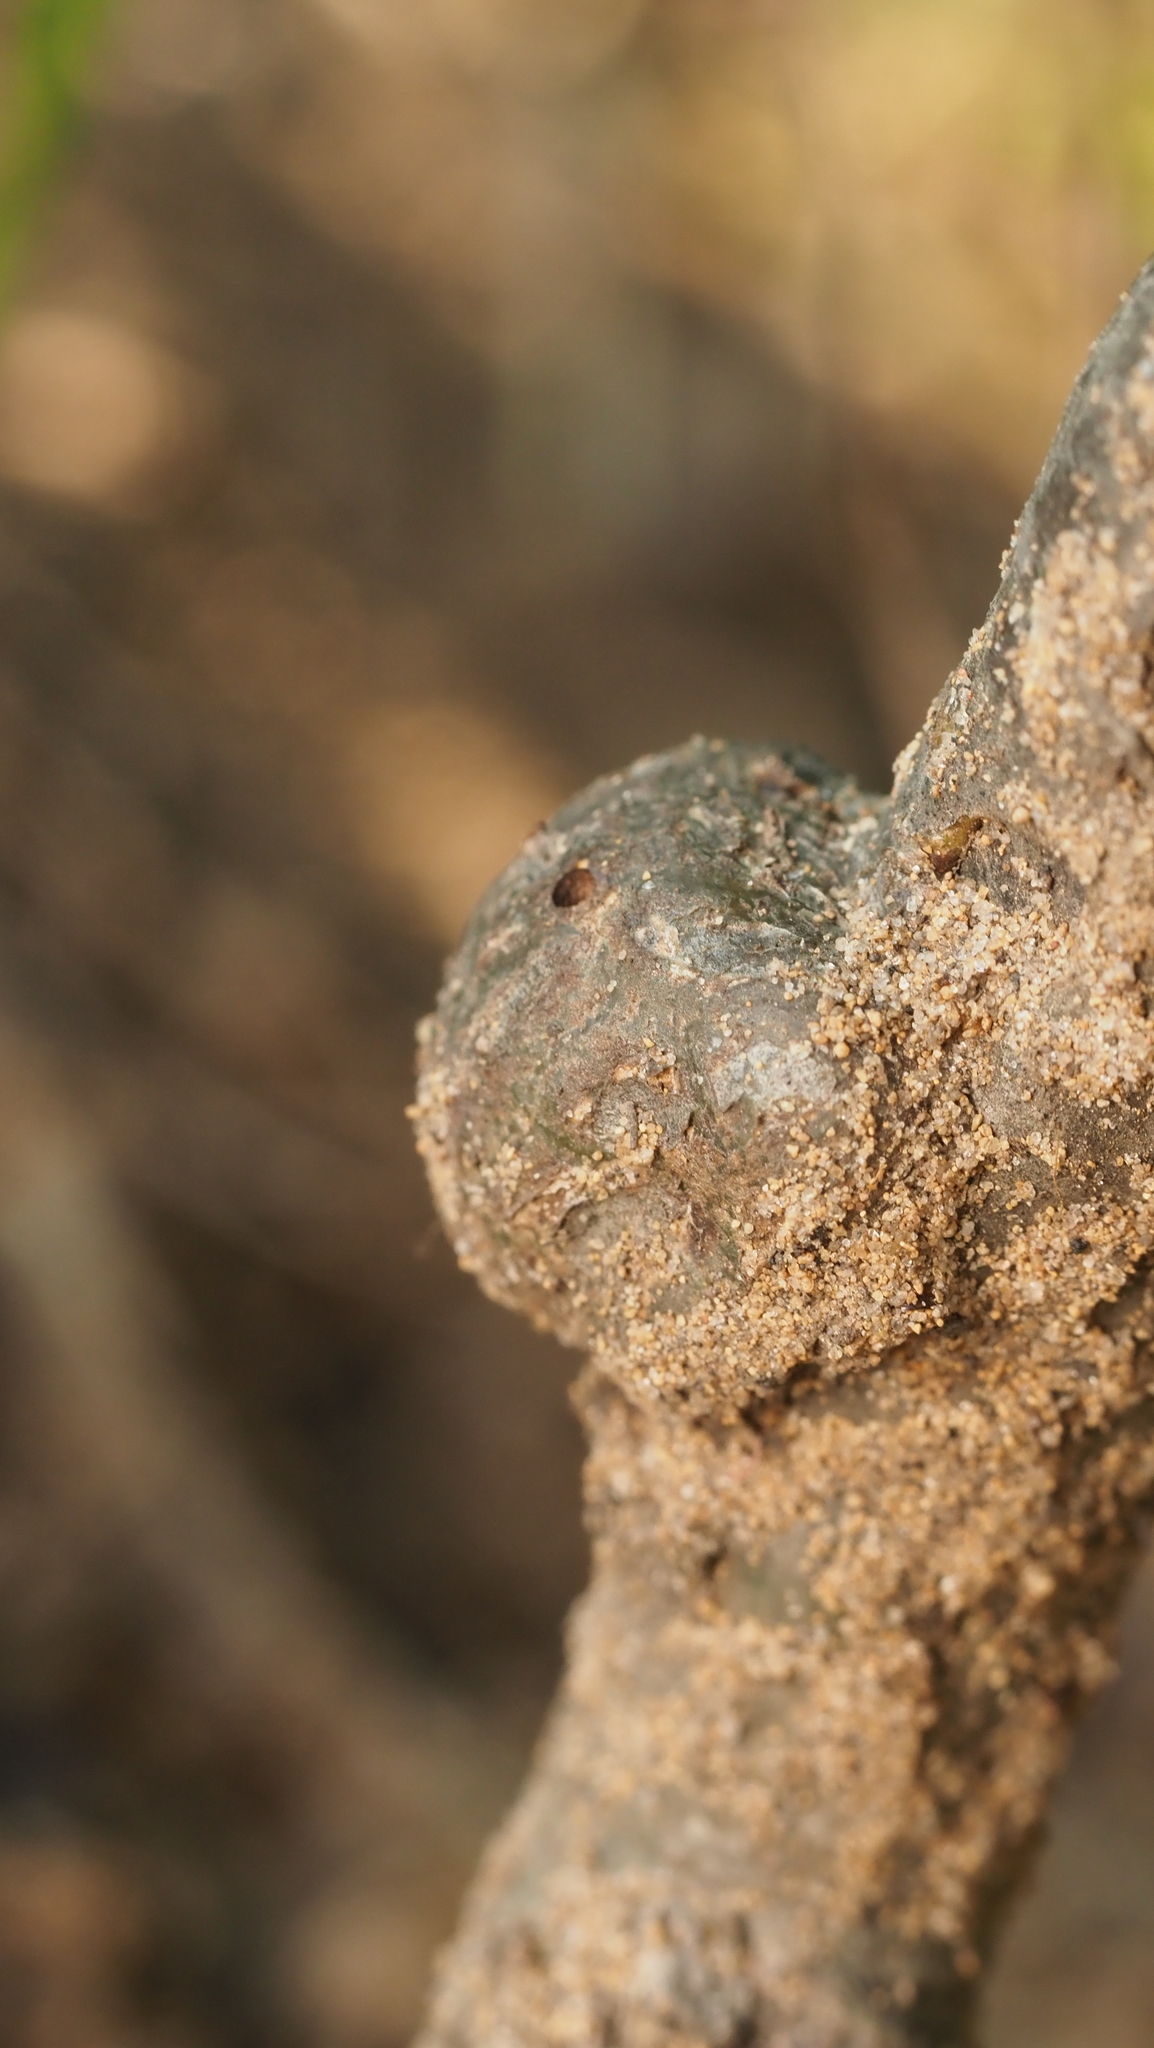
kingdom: Animalia
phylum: Arthropoda
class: Insecta
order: Hymenoptera
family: Cynipidae
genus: Callirhytis
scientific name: Callirhytis
